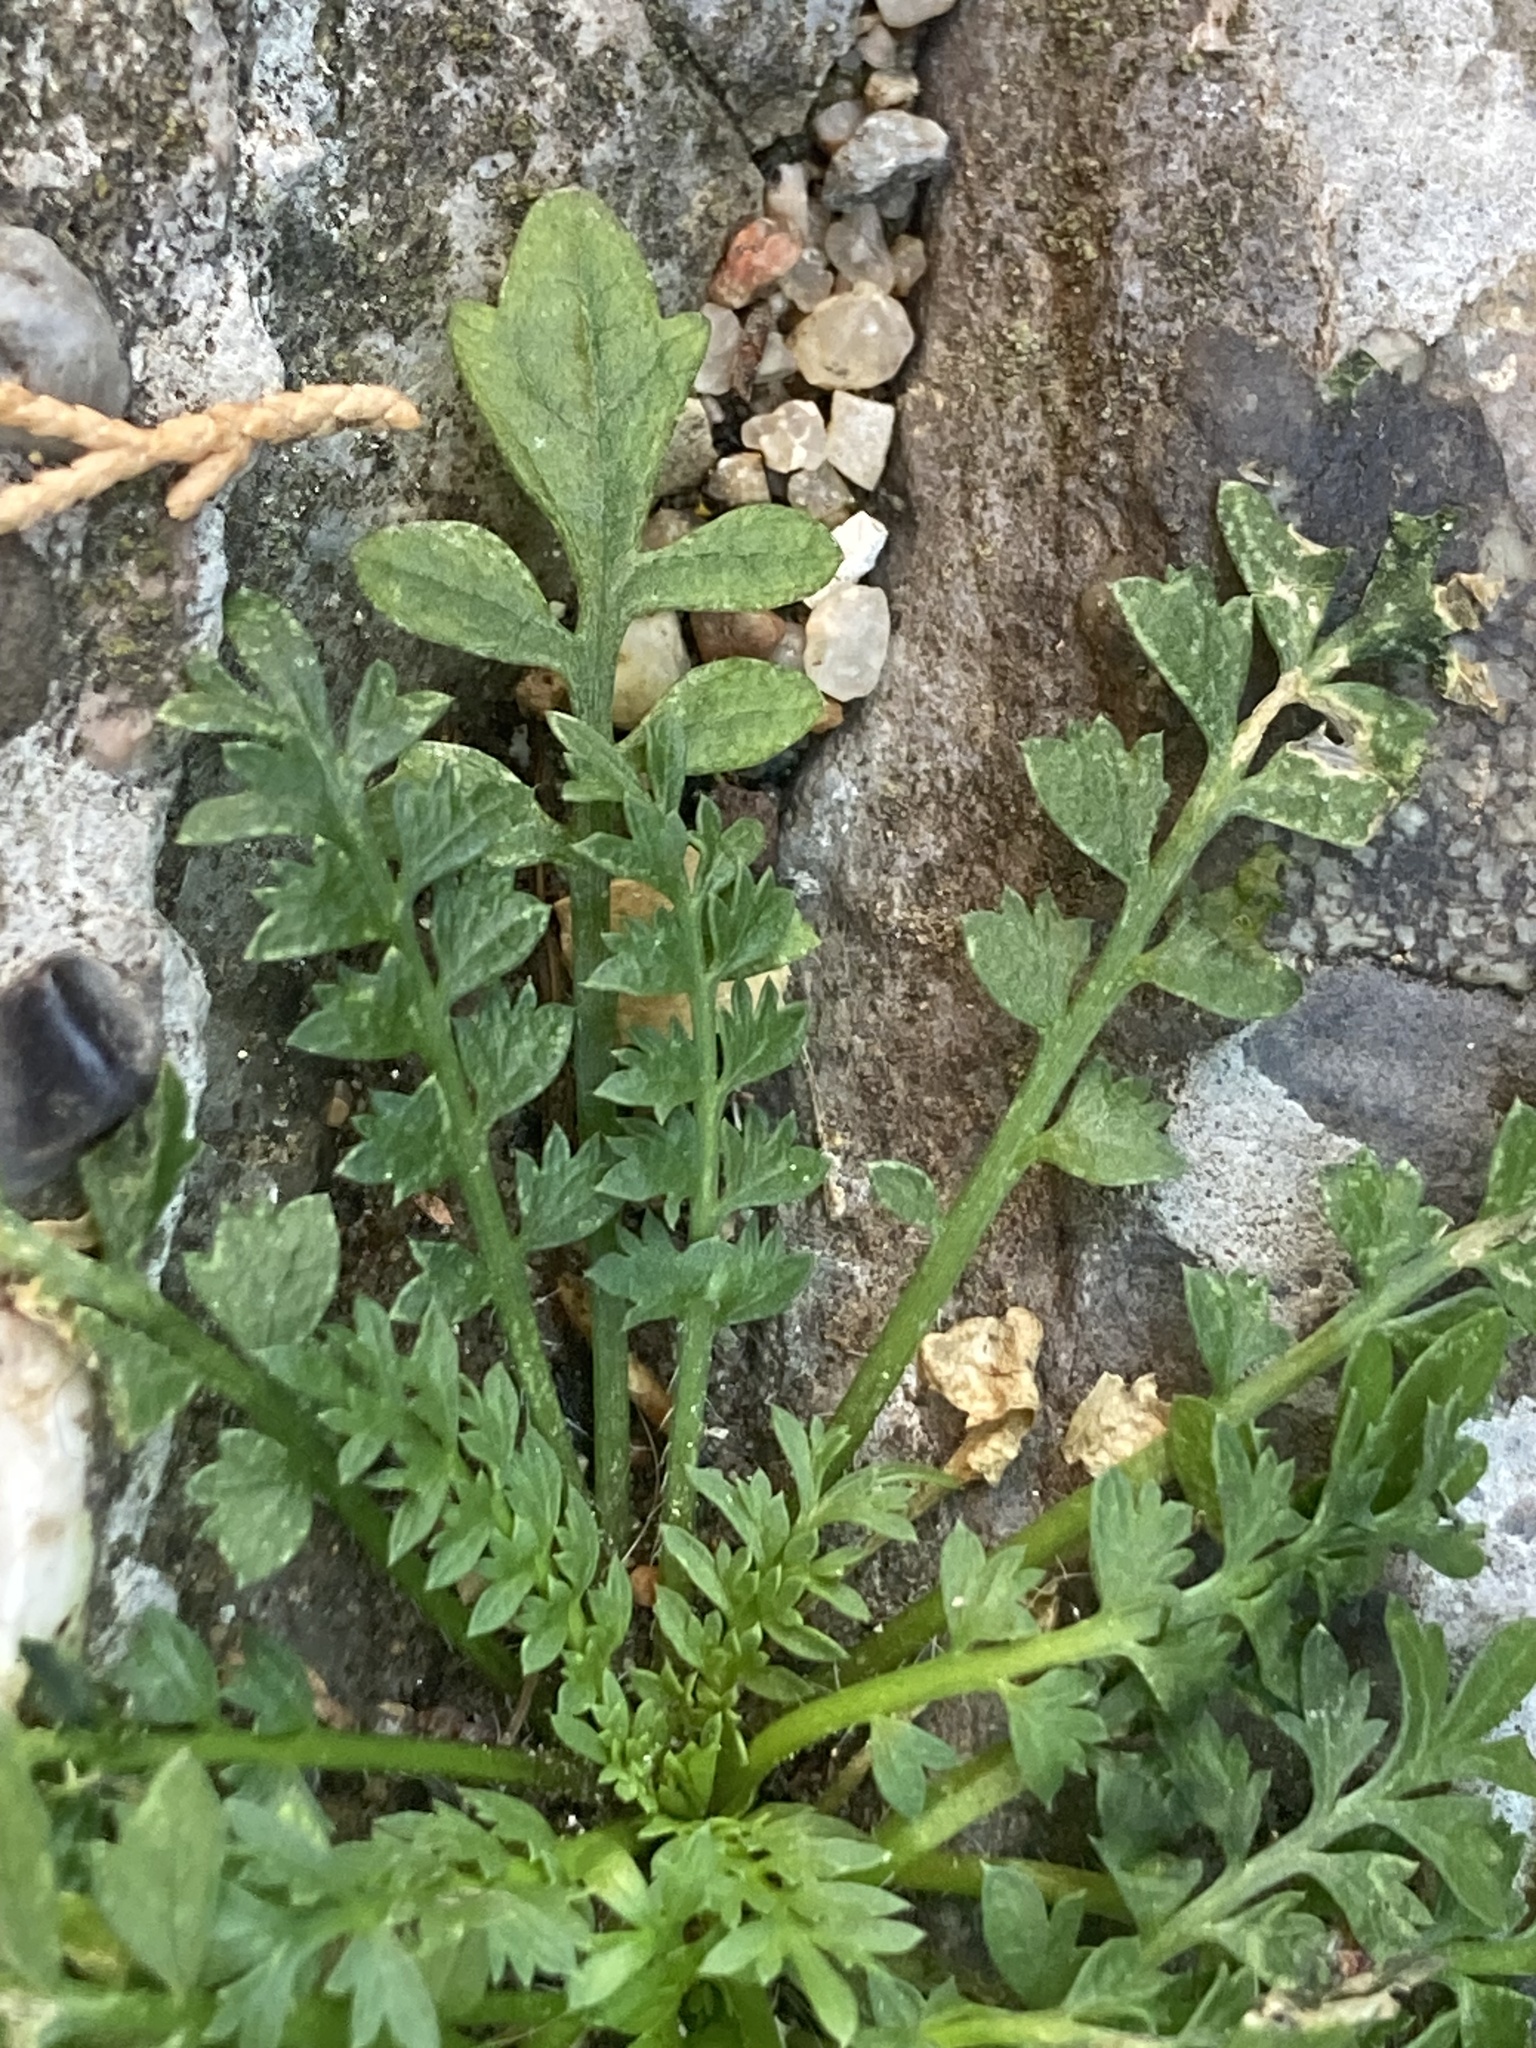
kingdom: Plantae
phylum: Tracheophyta
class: Magnoliopsida
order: Brassicales
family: Brassicaceae
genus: Lepidium
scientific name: Lepidium didymum
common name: Lesser swinecress
